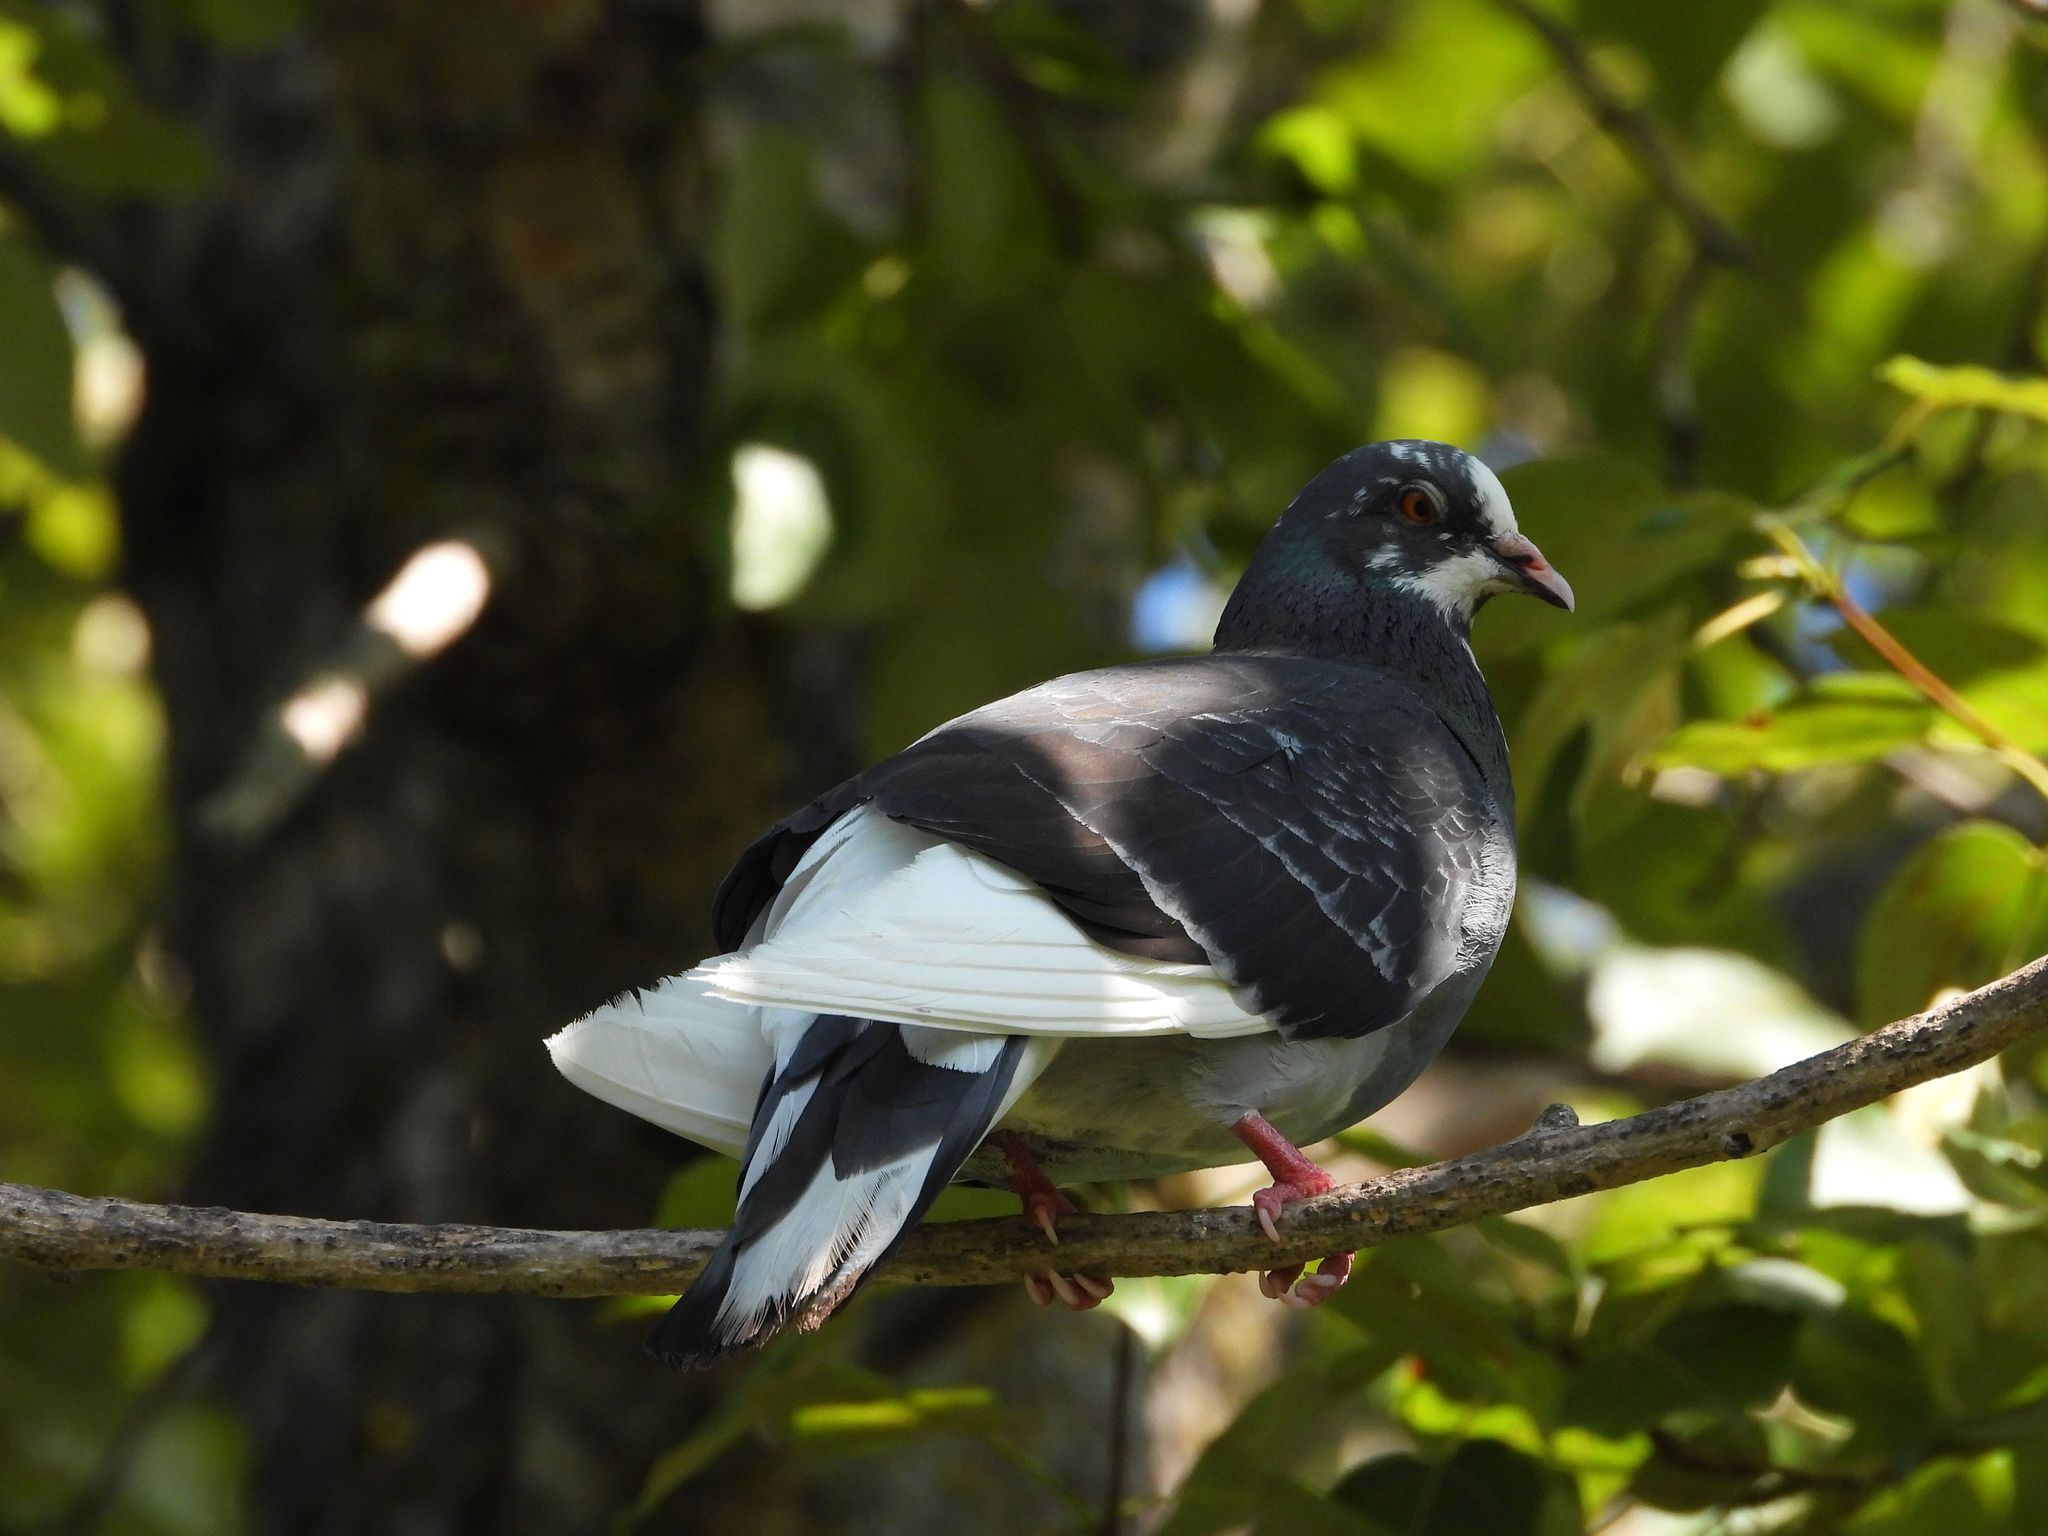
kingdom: Animalia
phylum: Chordata
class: Aves
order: Columbiformes
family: Columbidae
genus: Columba
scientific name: Columba livia
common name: Rock pigeon
